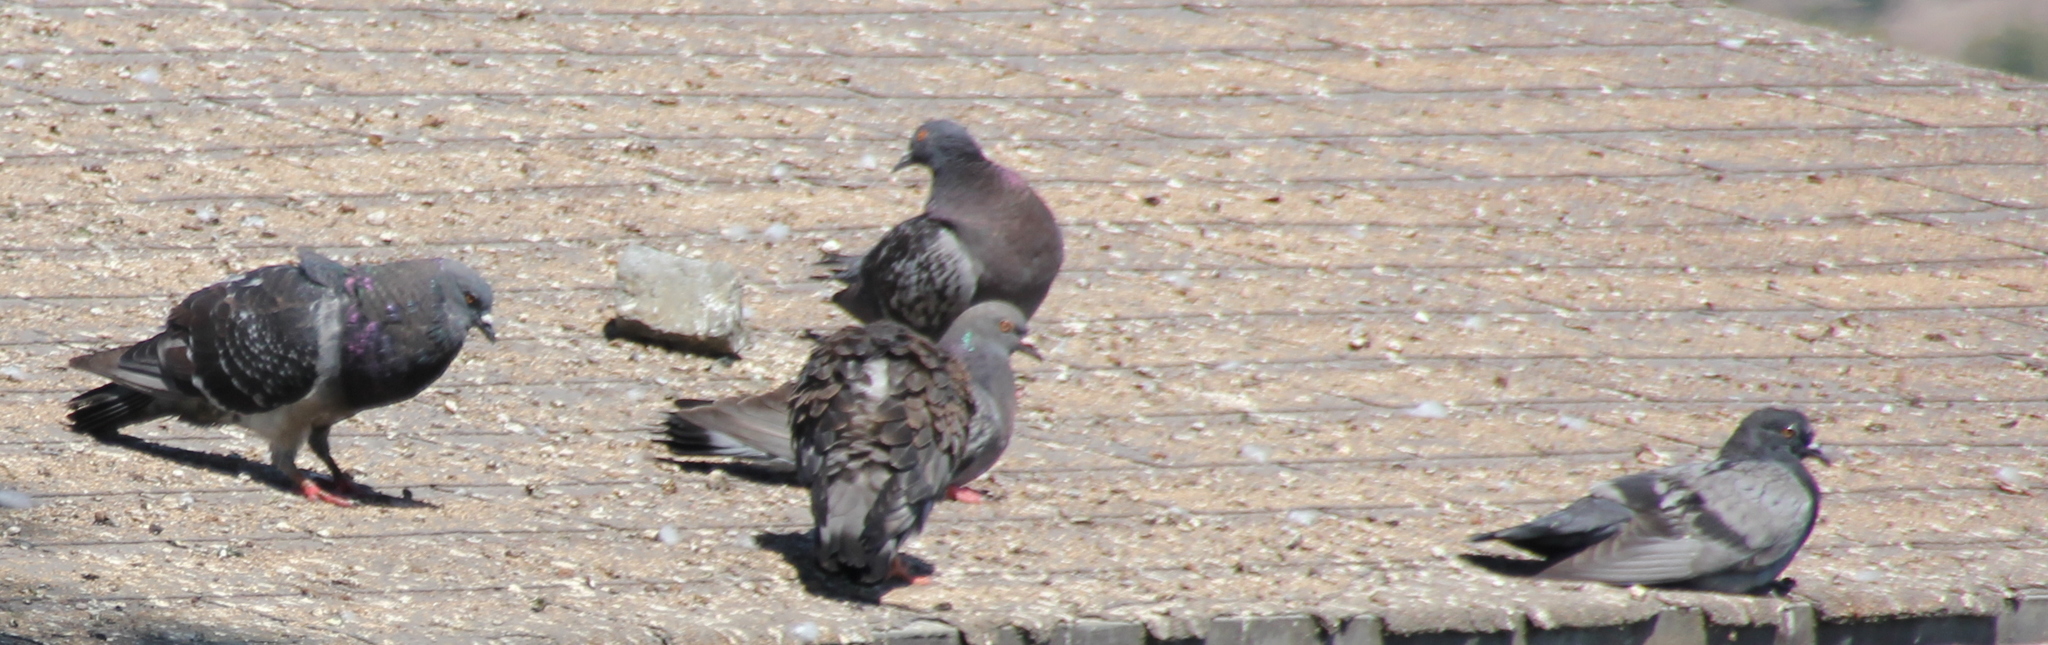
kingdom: Animalia
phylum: Chordata
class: Aves
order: Columbiformes
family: Columbidae
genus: Columba
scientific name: Columba livia
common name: Rock pigeon
